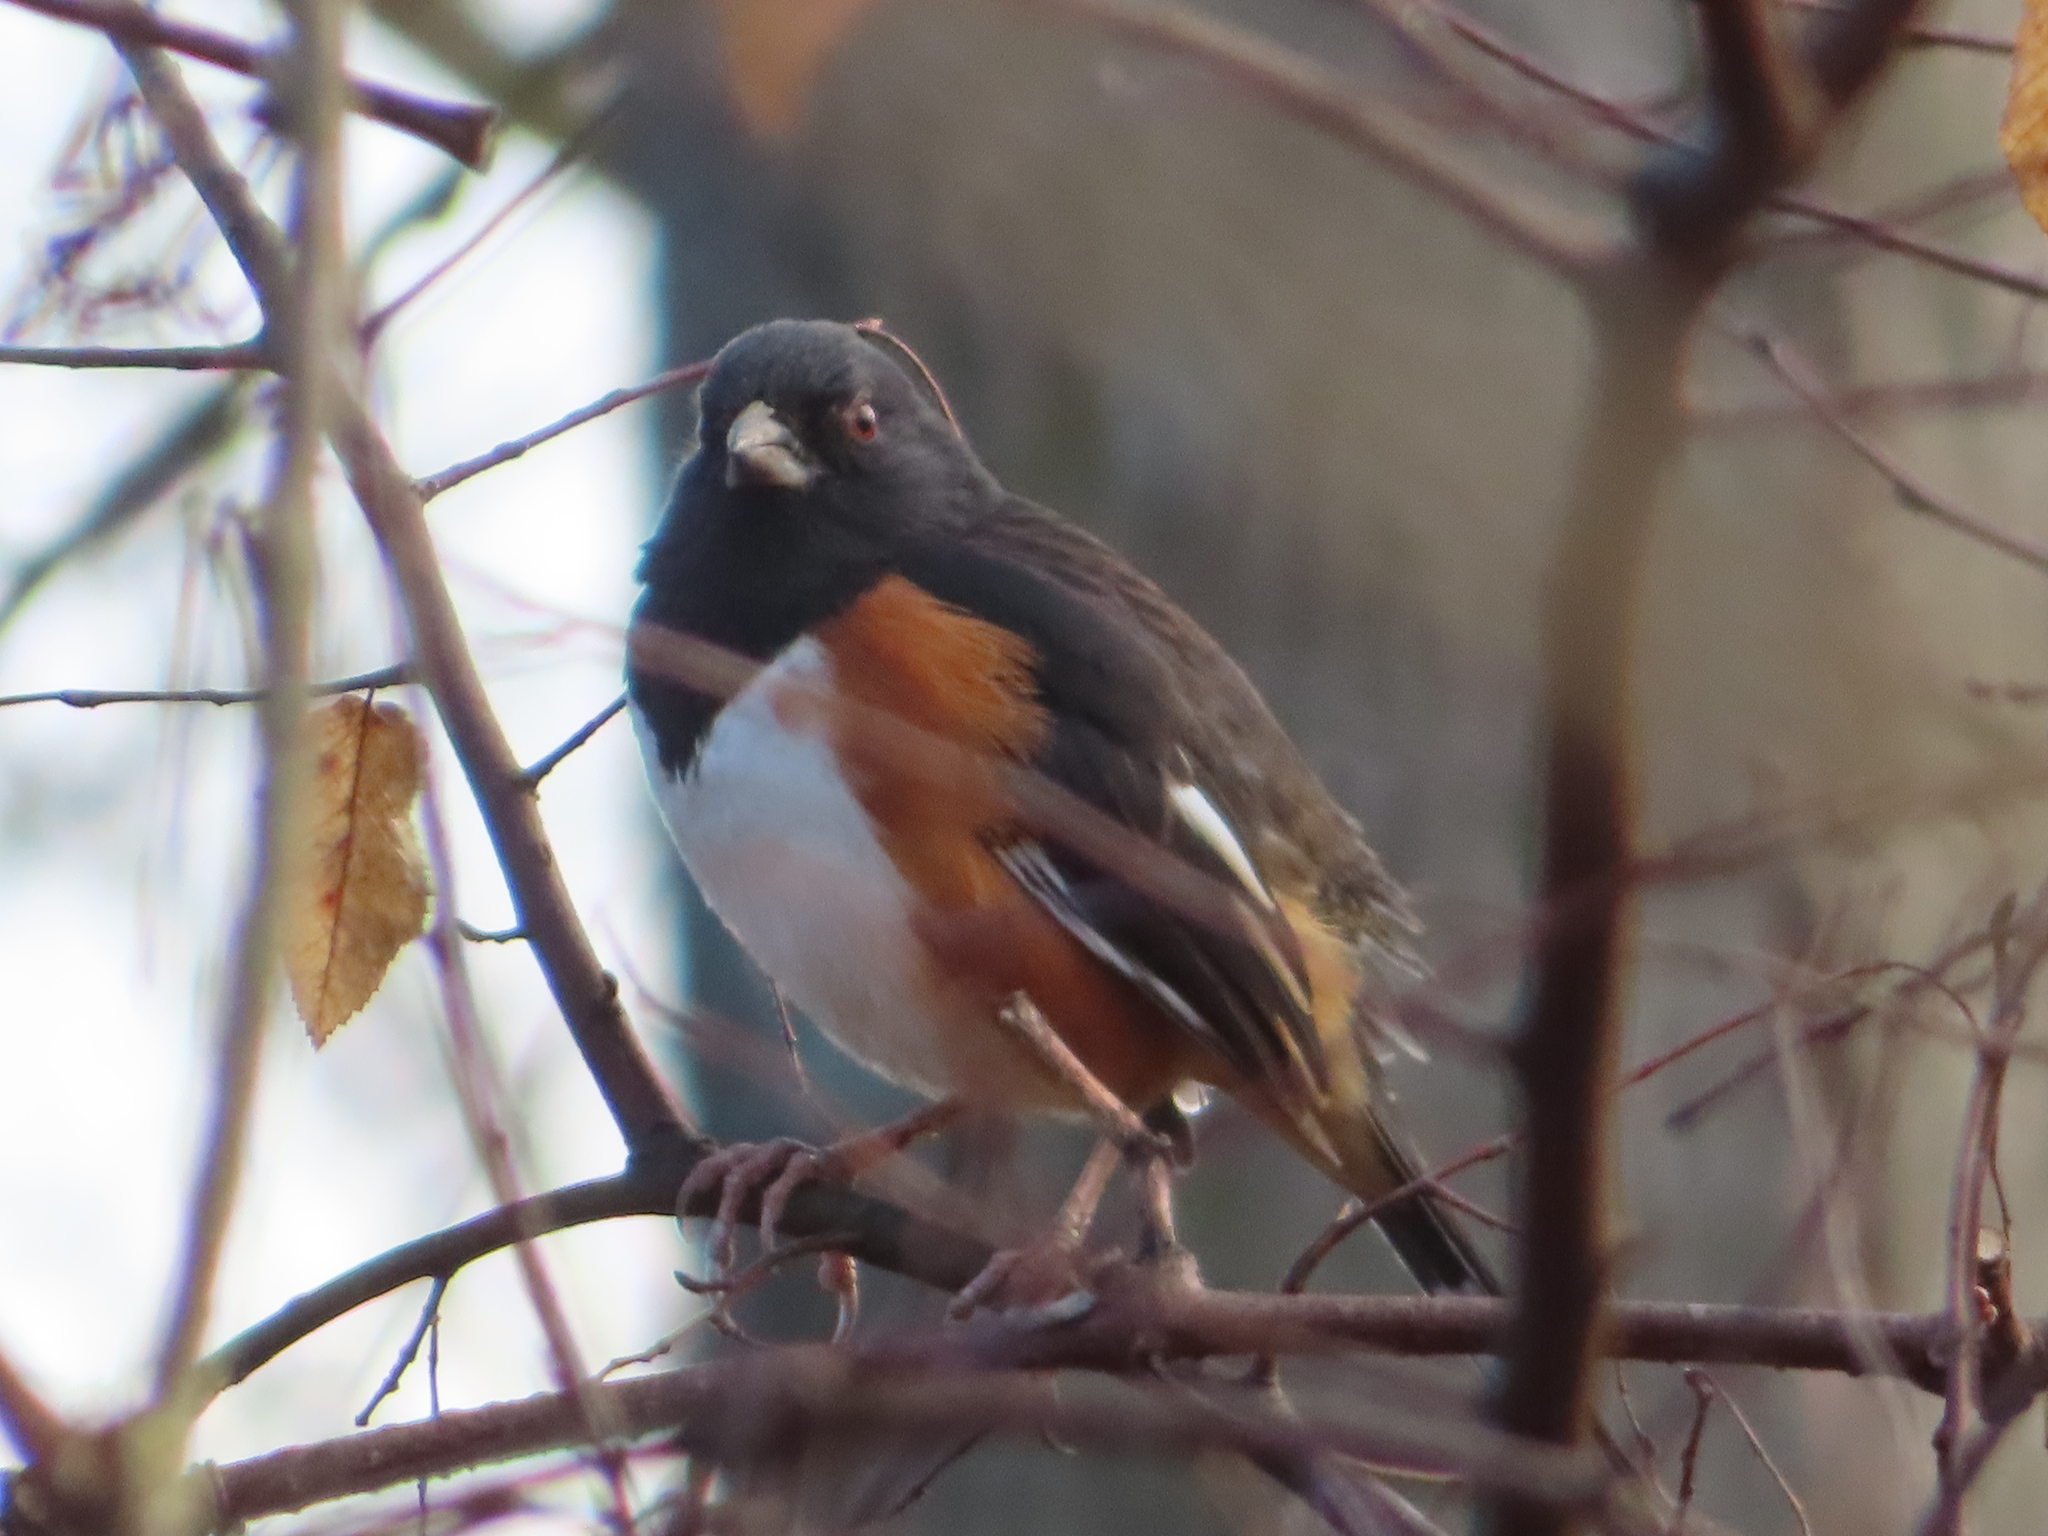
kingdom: Animalia
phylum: Chordata
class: Aves
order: Passeriformes
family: Passerellidae
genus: Pipilo
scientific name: Pipilo erythrophthalmus
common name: Eastern towhee
